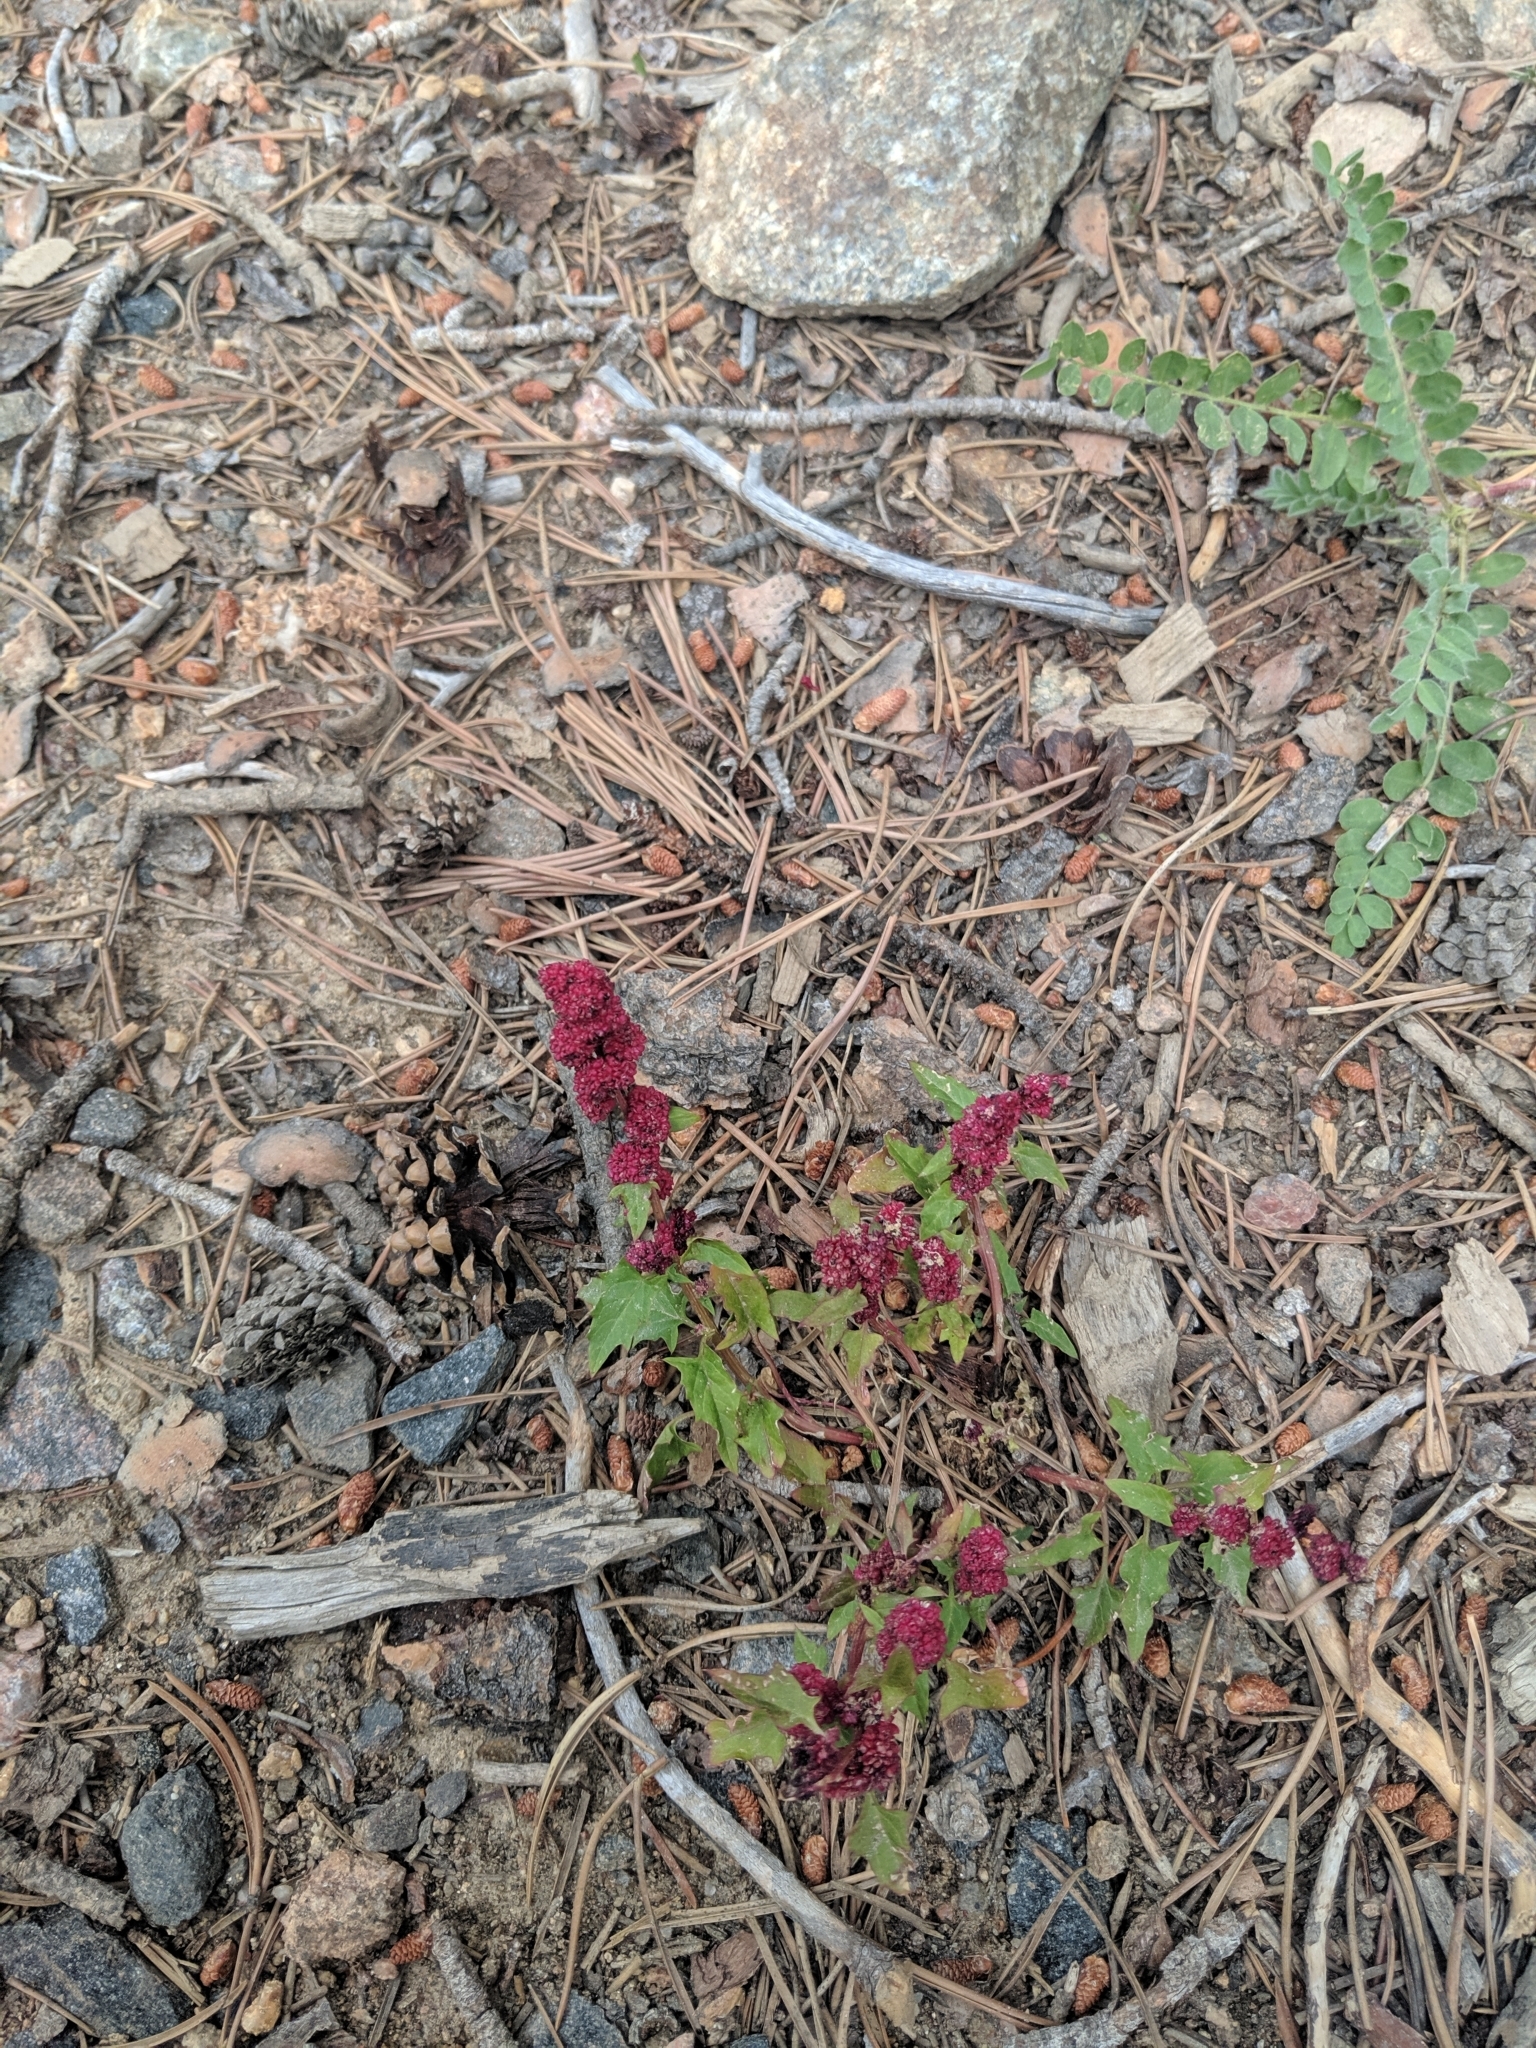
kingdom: Plantae
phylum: Tracheophyta
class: Magnoliopsida
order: Caryophyllales
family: Amaranthaceae
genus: Blitum
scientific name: Blitum capitatum
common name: Strawberry-blight
